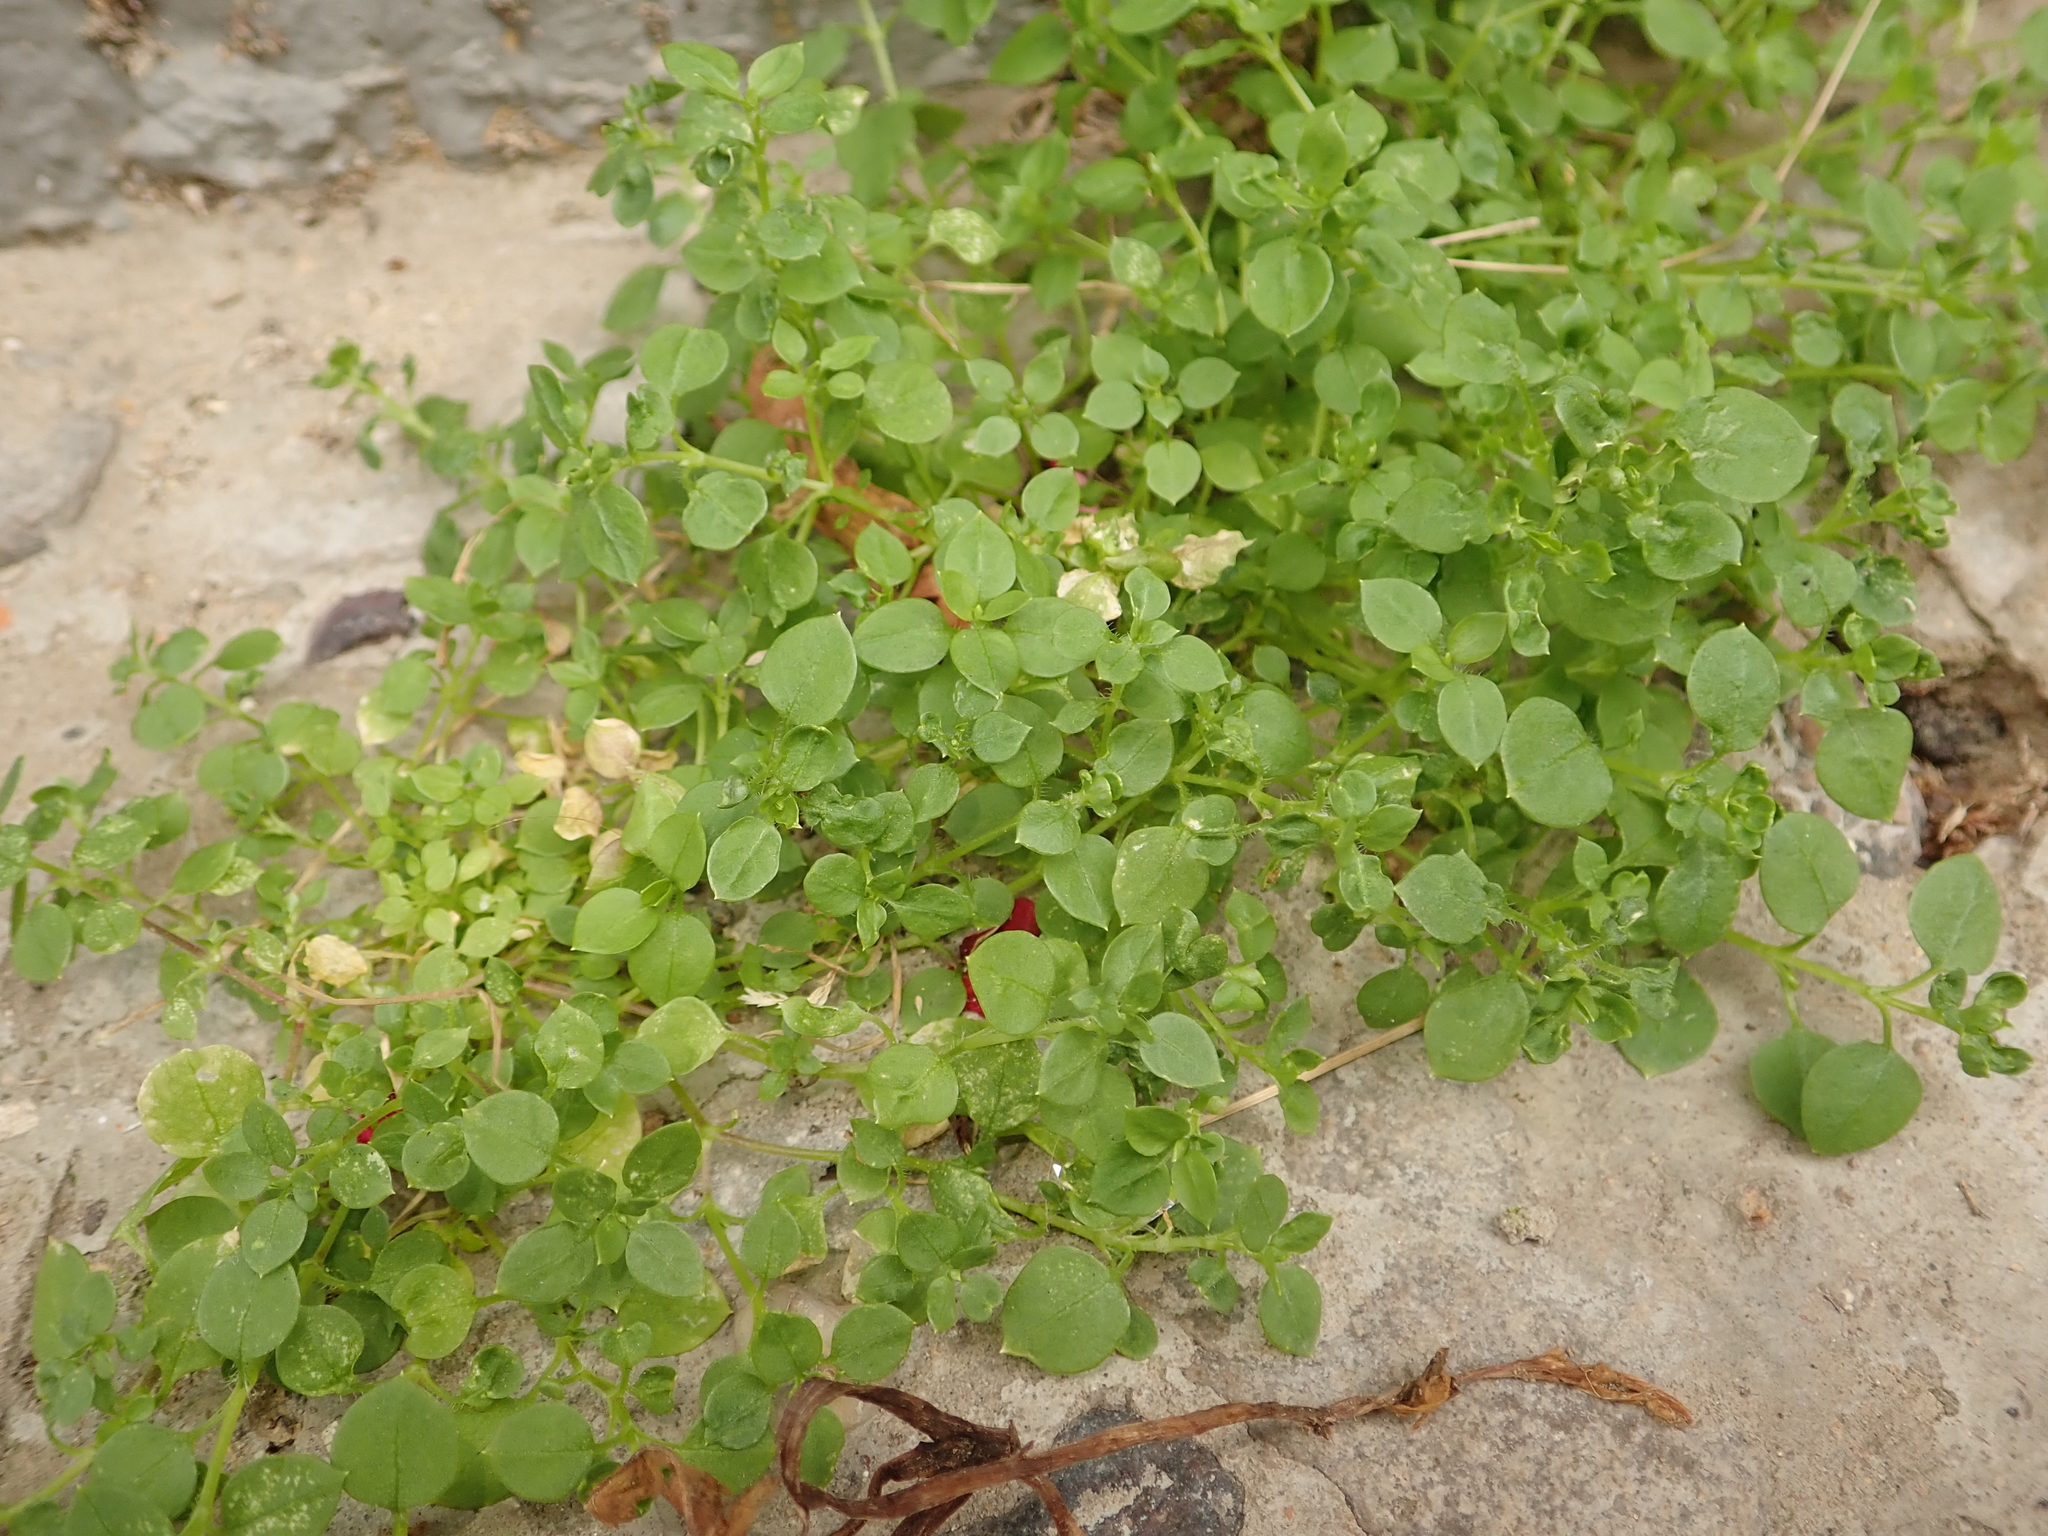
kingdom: Plantae
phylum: Tracheophyta
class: Magnoliopsida
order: Caryophyllales
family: Caryophyllaceae
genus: Stellaria
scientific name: Stellaria media
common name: Common chickweed
